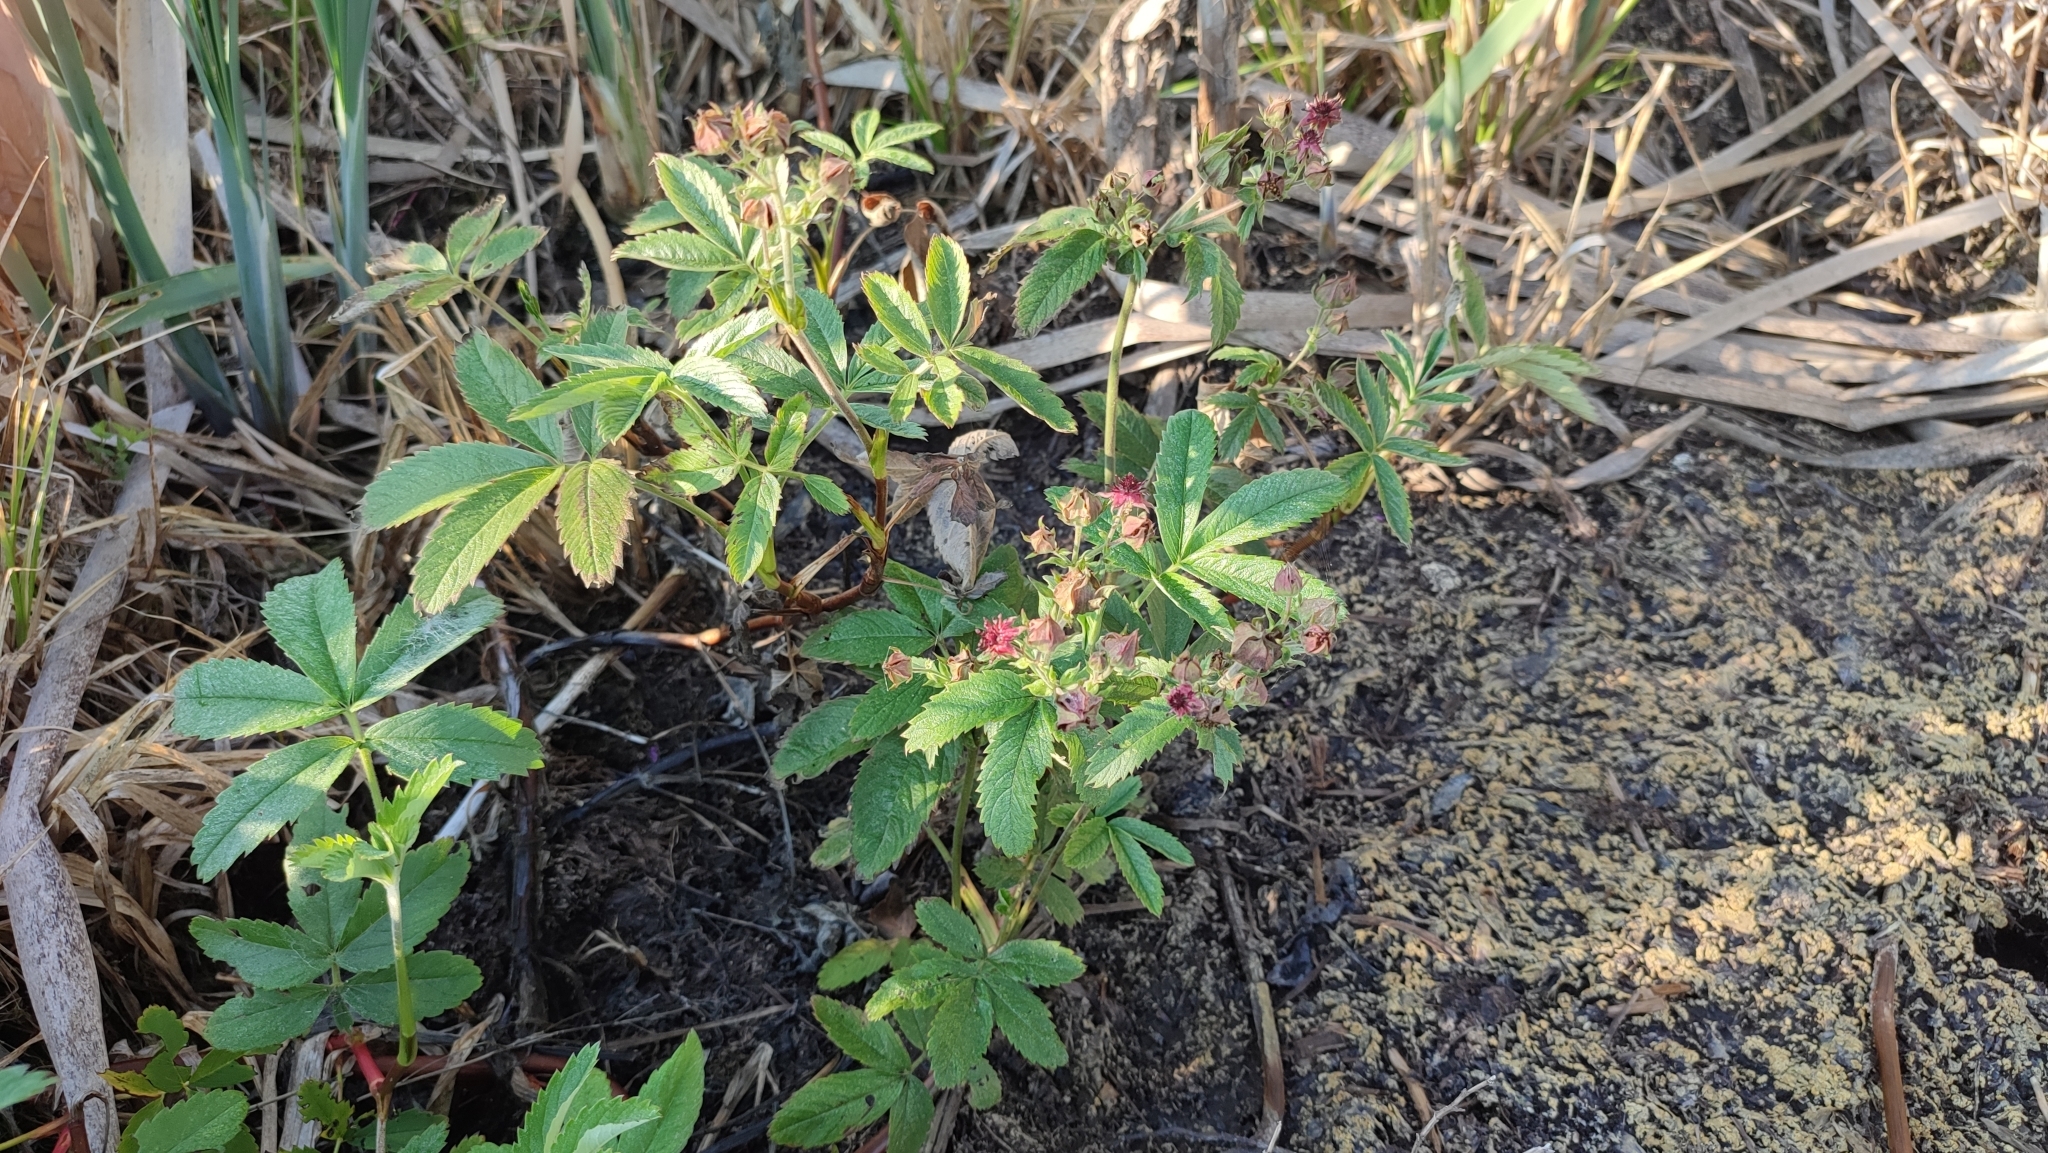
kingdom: Plantae
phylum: Tracheophyta
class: Magnoliopsida
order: Rosales
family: Rosaceae
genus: Comarum
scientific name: Comarum palustre
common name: Marsh cinquefoil
